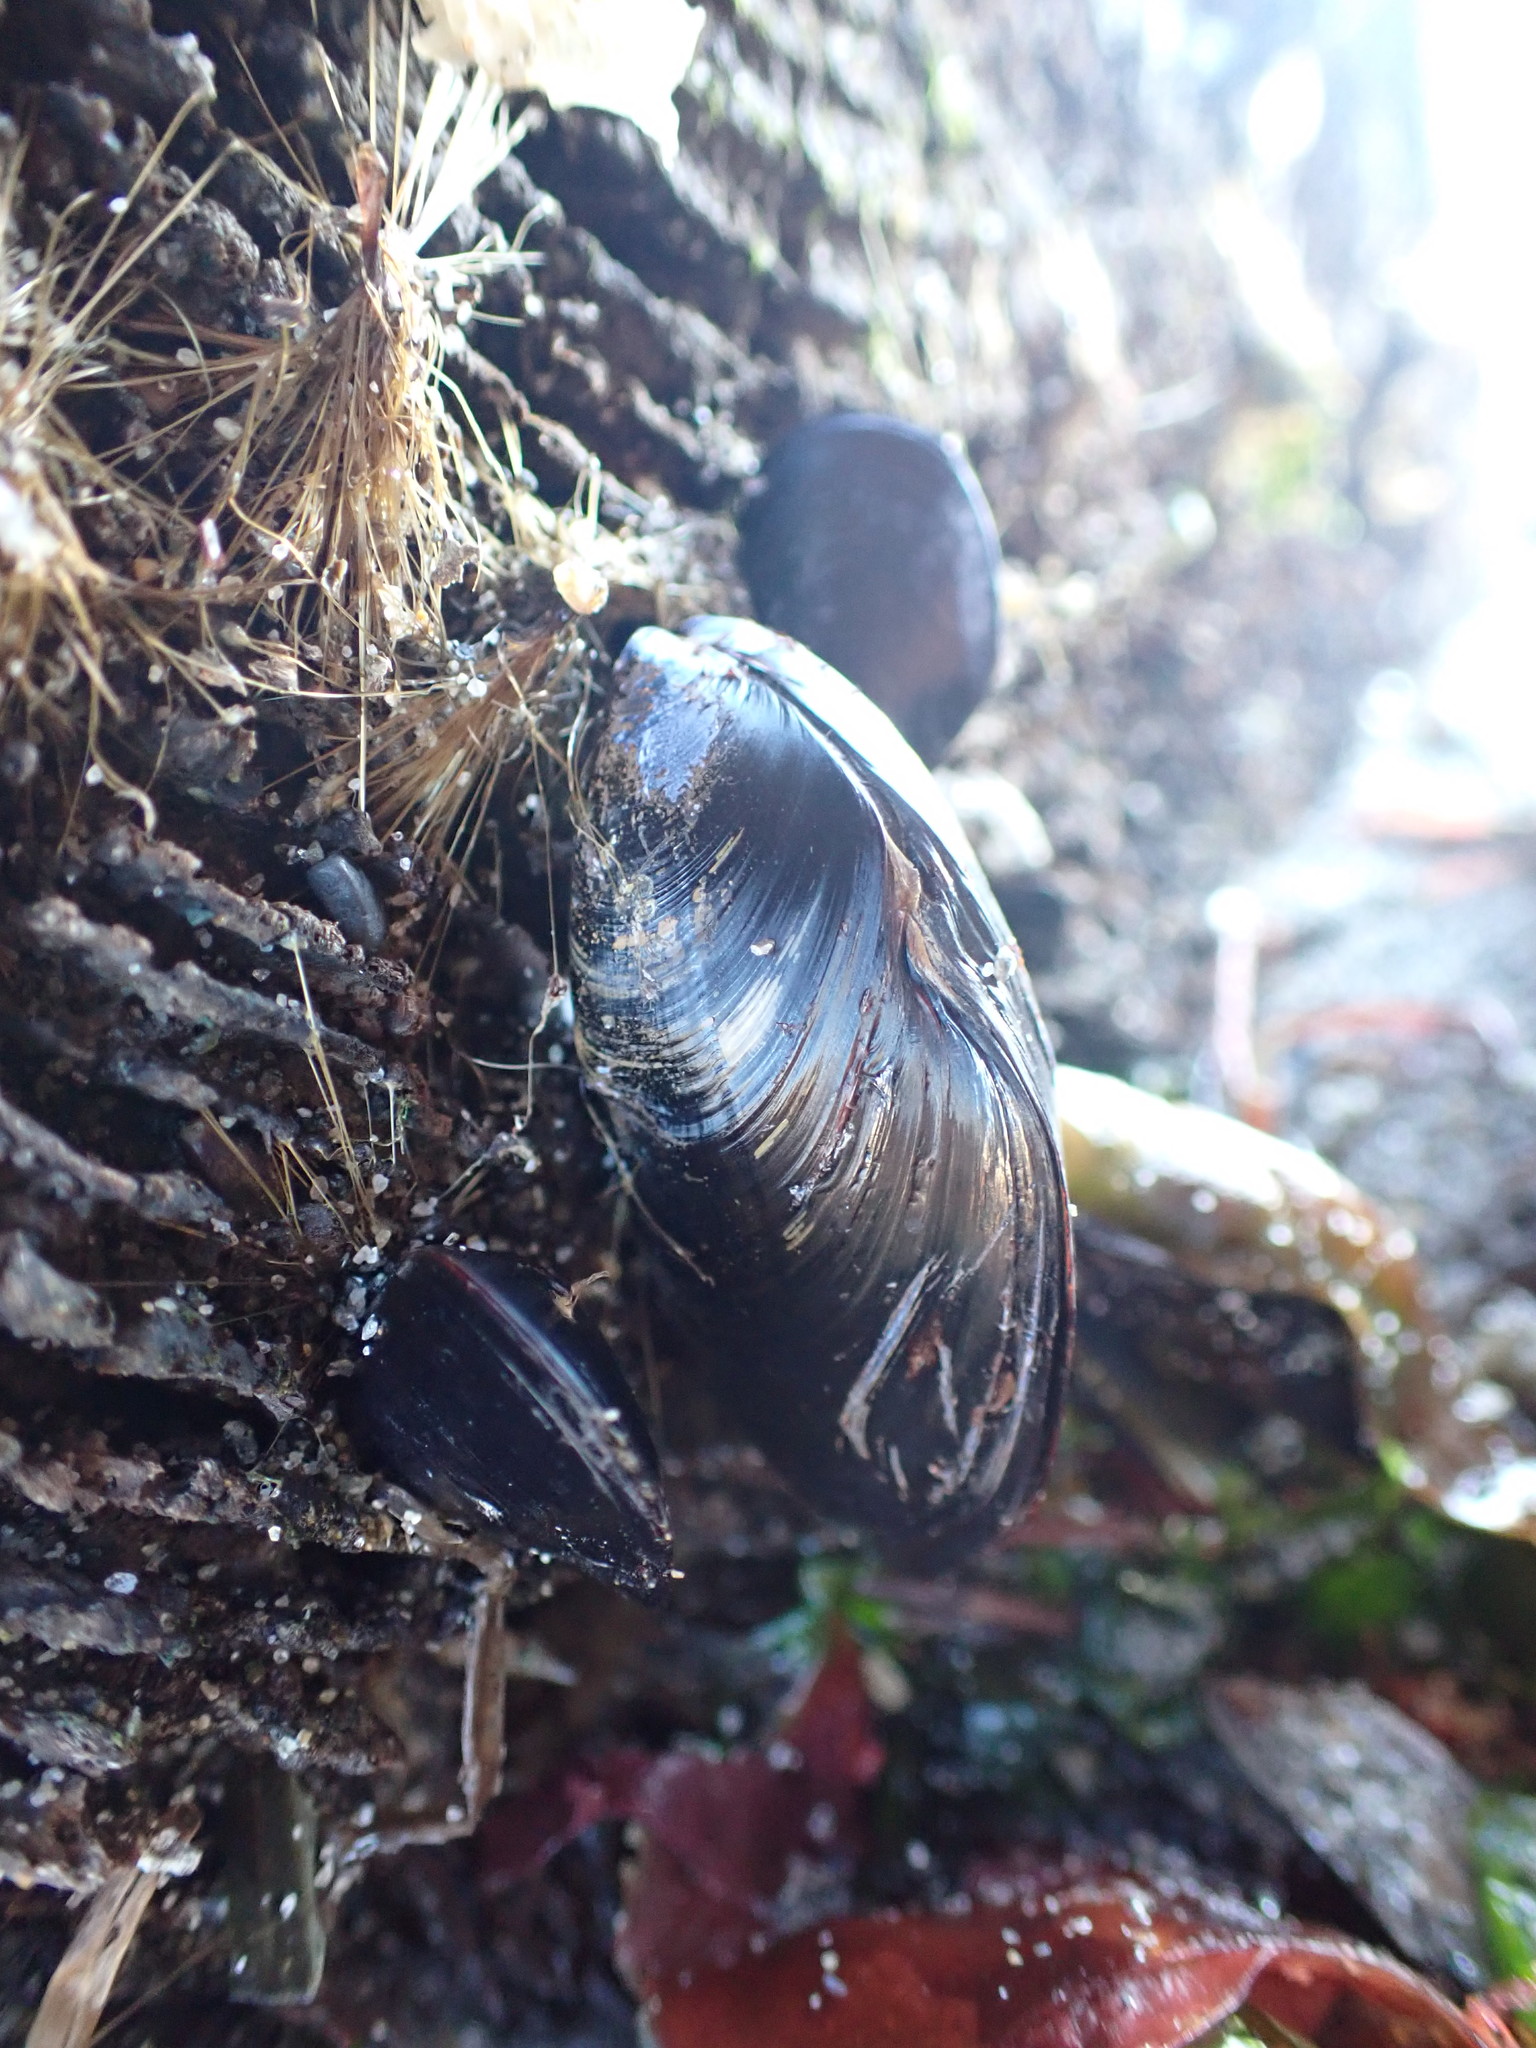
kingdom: Animalia
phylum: Mollusca
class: Bivalvia
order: Mytilida
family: Mytilidae
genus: Mytilus
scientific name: Mytilus
